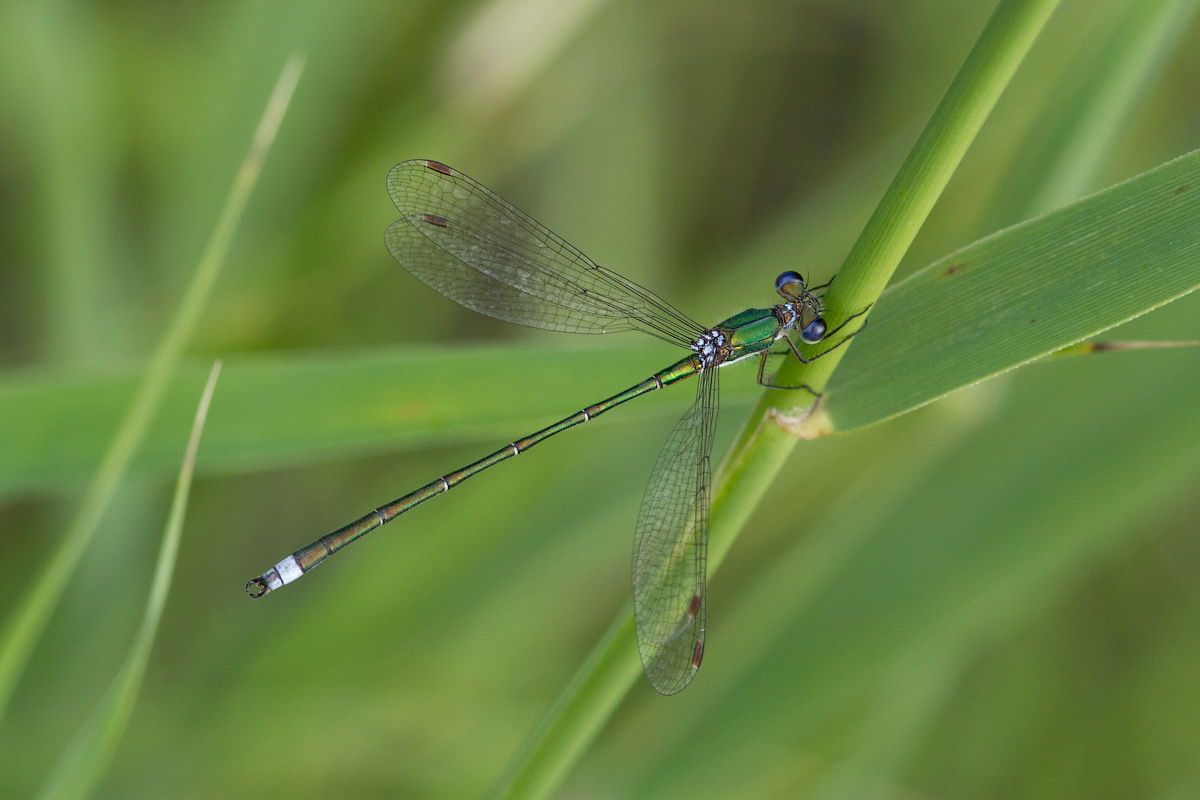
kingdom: Animalia
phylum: Arthropoda
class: Insecta
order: Odonata
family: Lestidae
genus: Lestes
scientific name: Lestes virens
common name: Small emerald spreadwing
